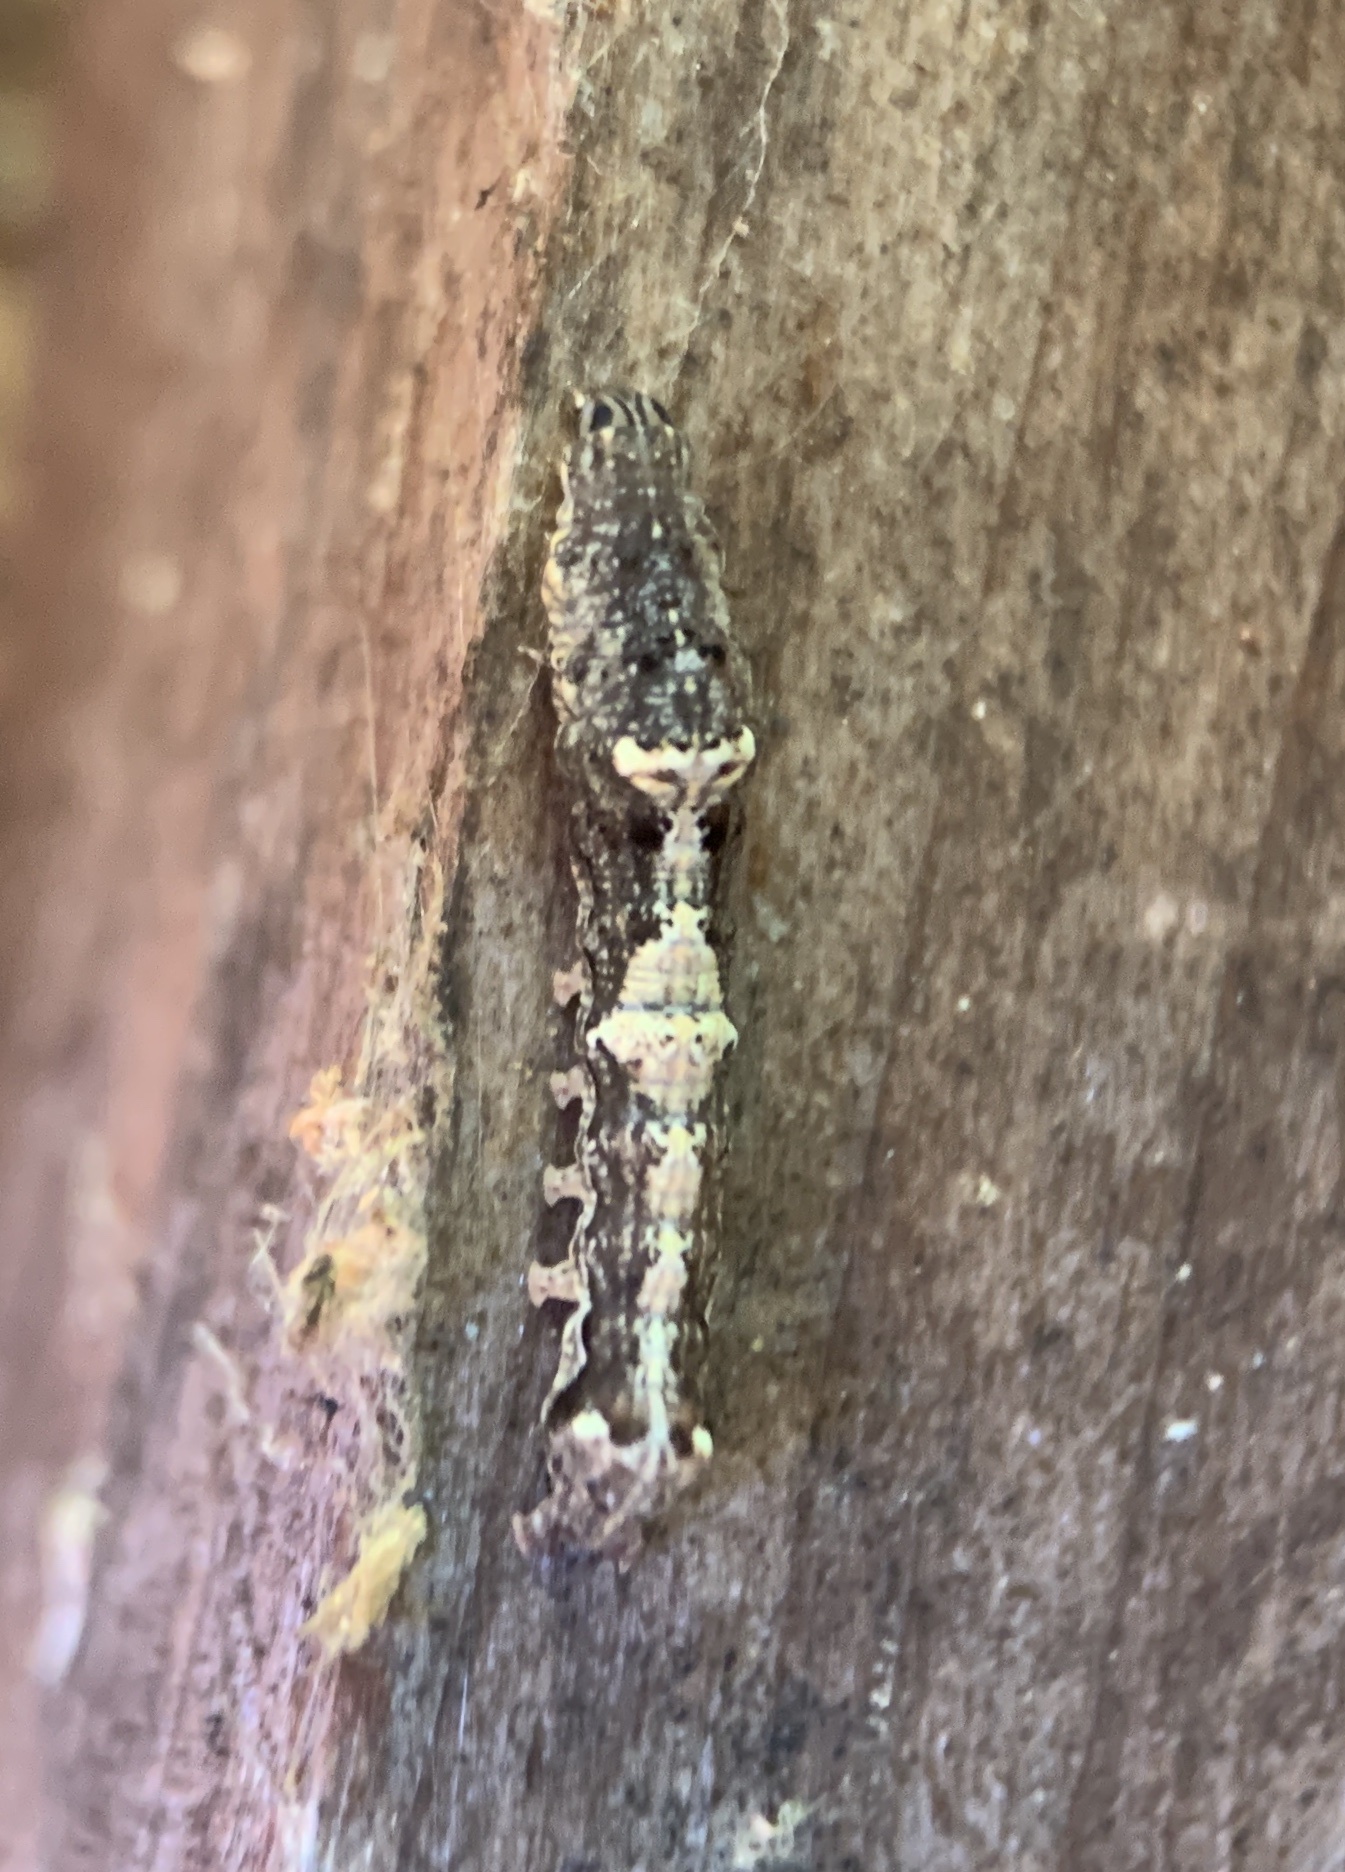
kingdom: Animalia
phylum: Arthropoda
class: Insecta
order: Lepidoptera
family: Noctuidae
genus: Elaphria
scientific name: Elaphria versicolor
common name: Fir harlequin
